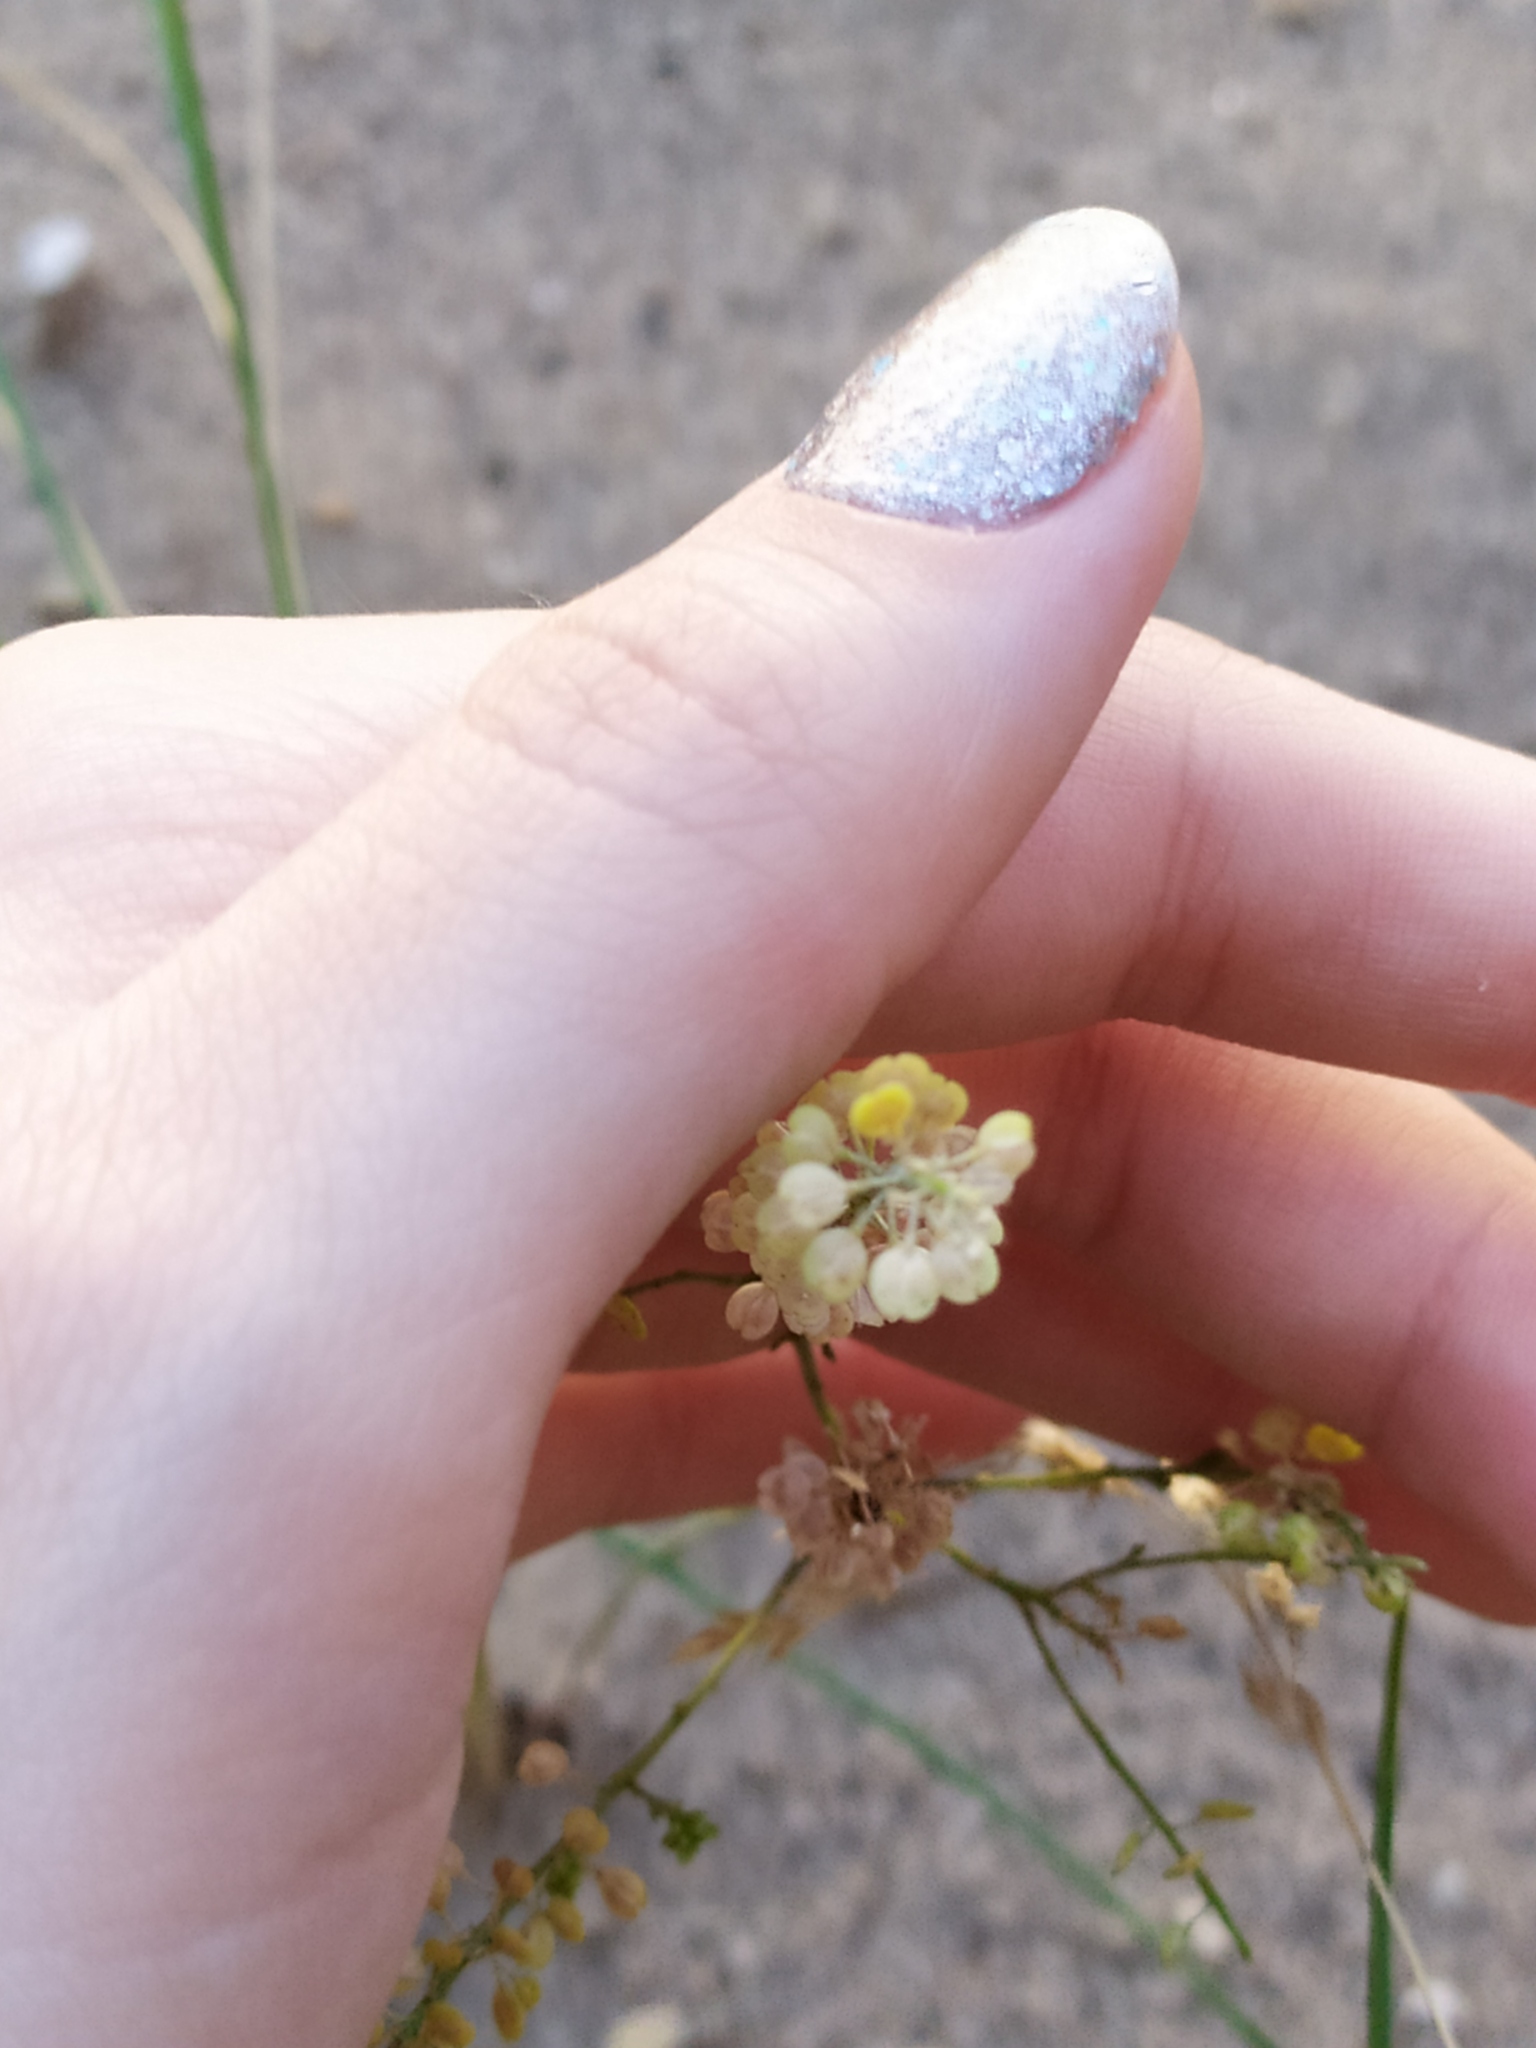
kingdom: Plantae
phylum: Tracheophyta
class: Magnoliopsida
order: Brassicales
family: Brassicaceae
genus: Lepidium
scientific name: Lepidium densiflorum
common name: Miner's pepperwort
